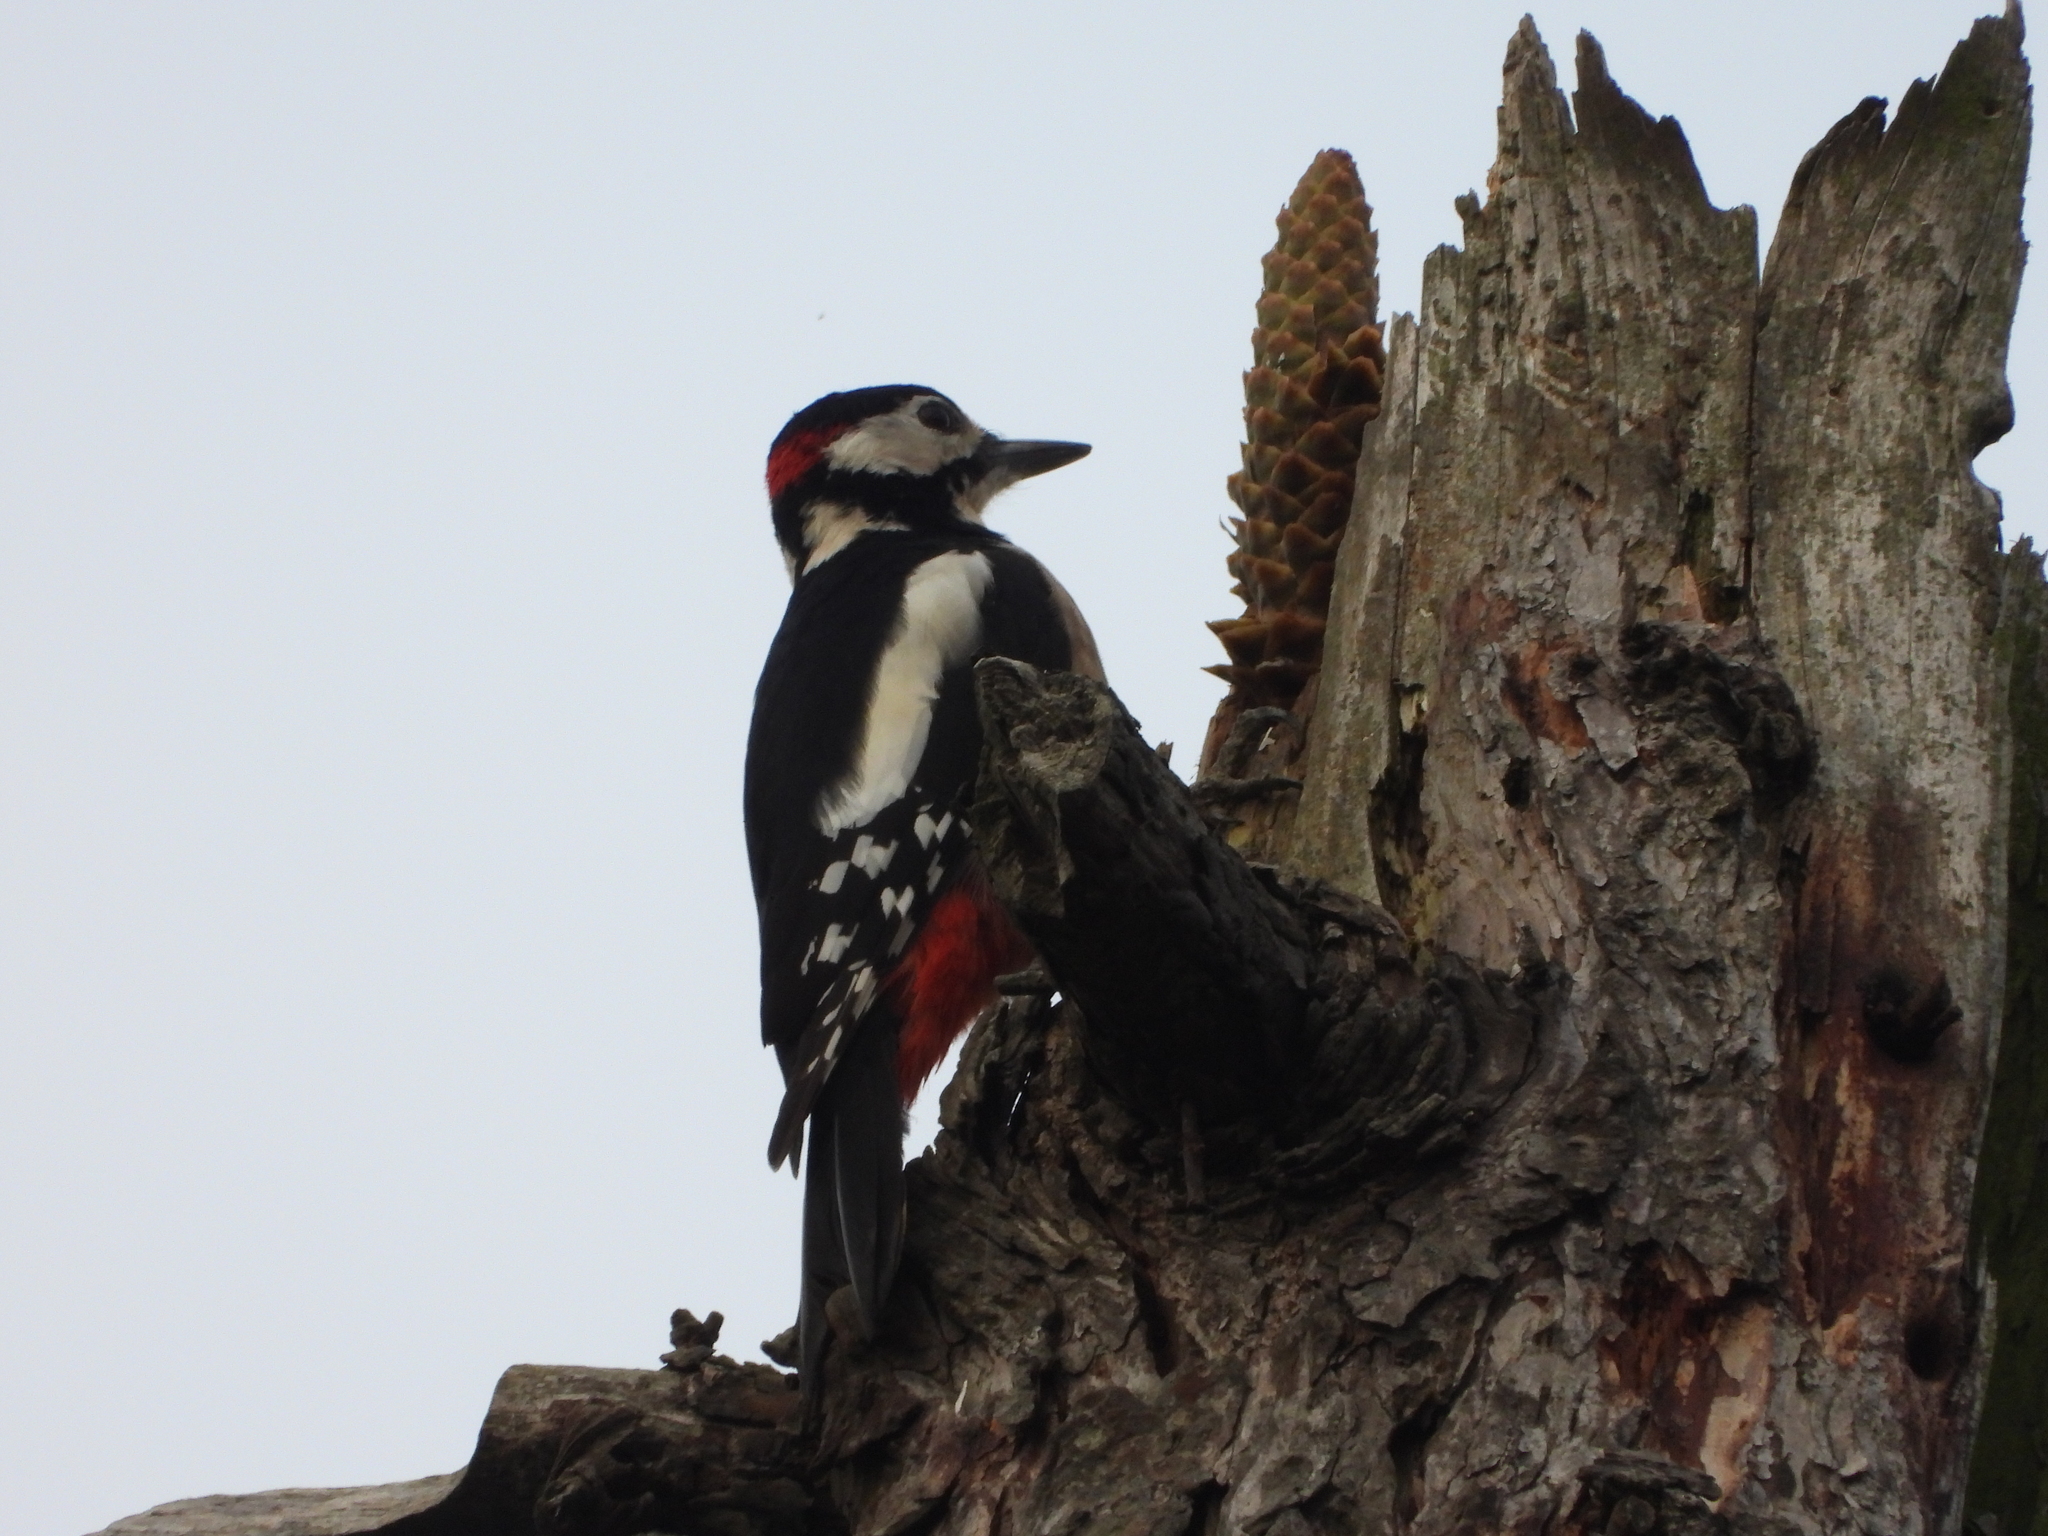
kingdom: Animalia
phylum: Chordata
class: Aves
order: Piciformes
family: Picidae
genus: Dendrocopos
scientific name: Dendrocopos major
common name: Great spotted woodpecker
